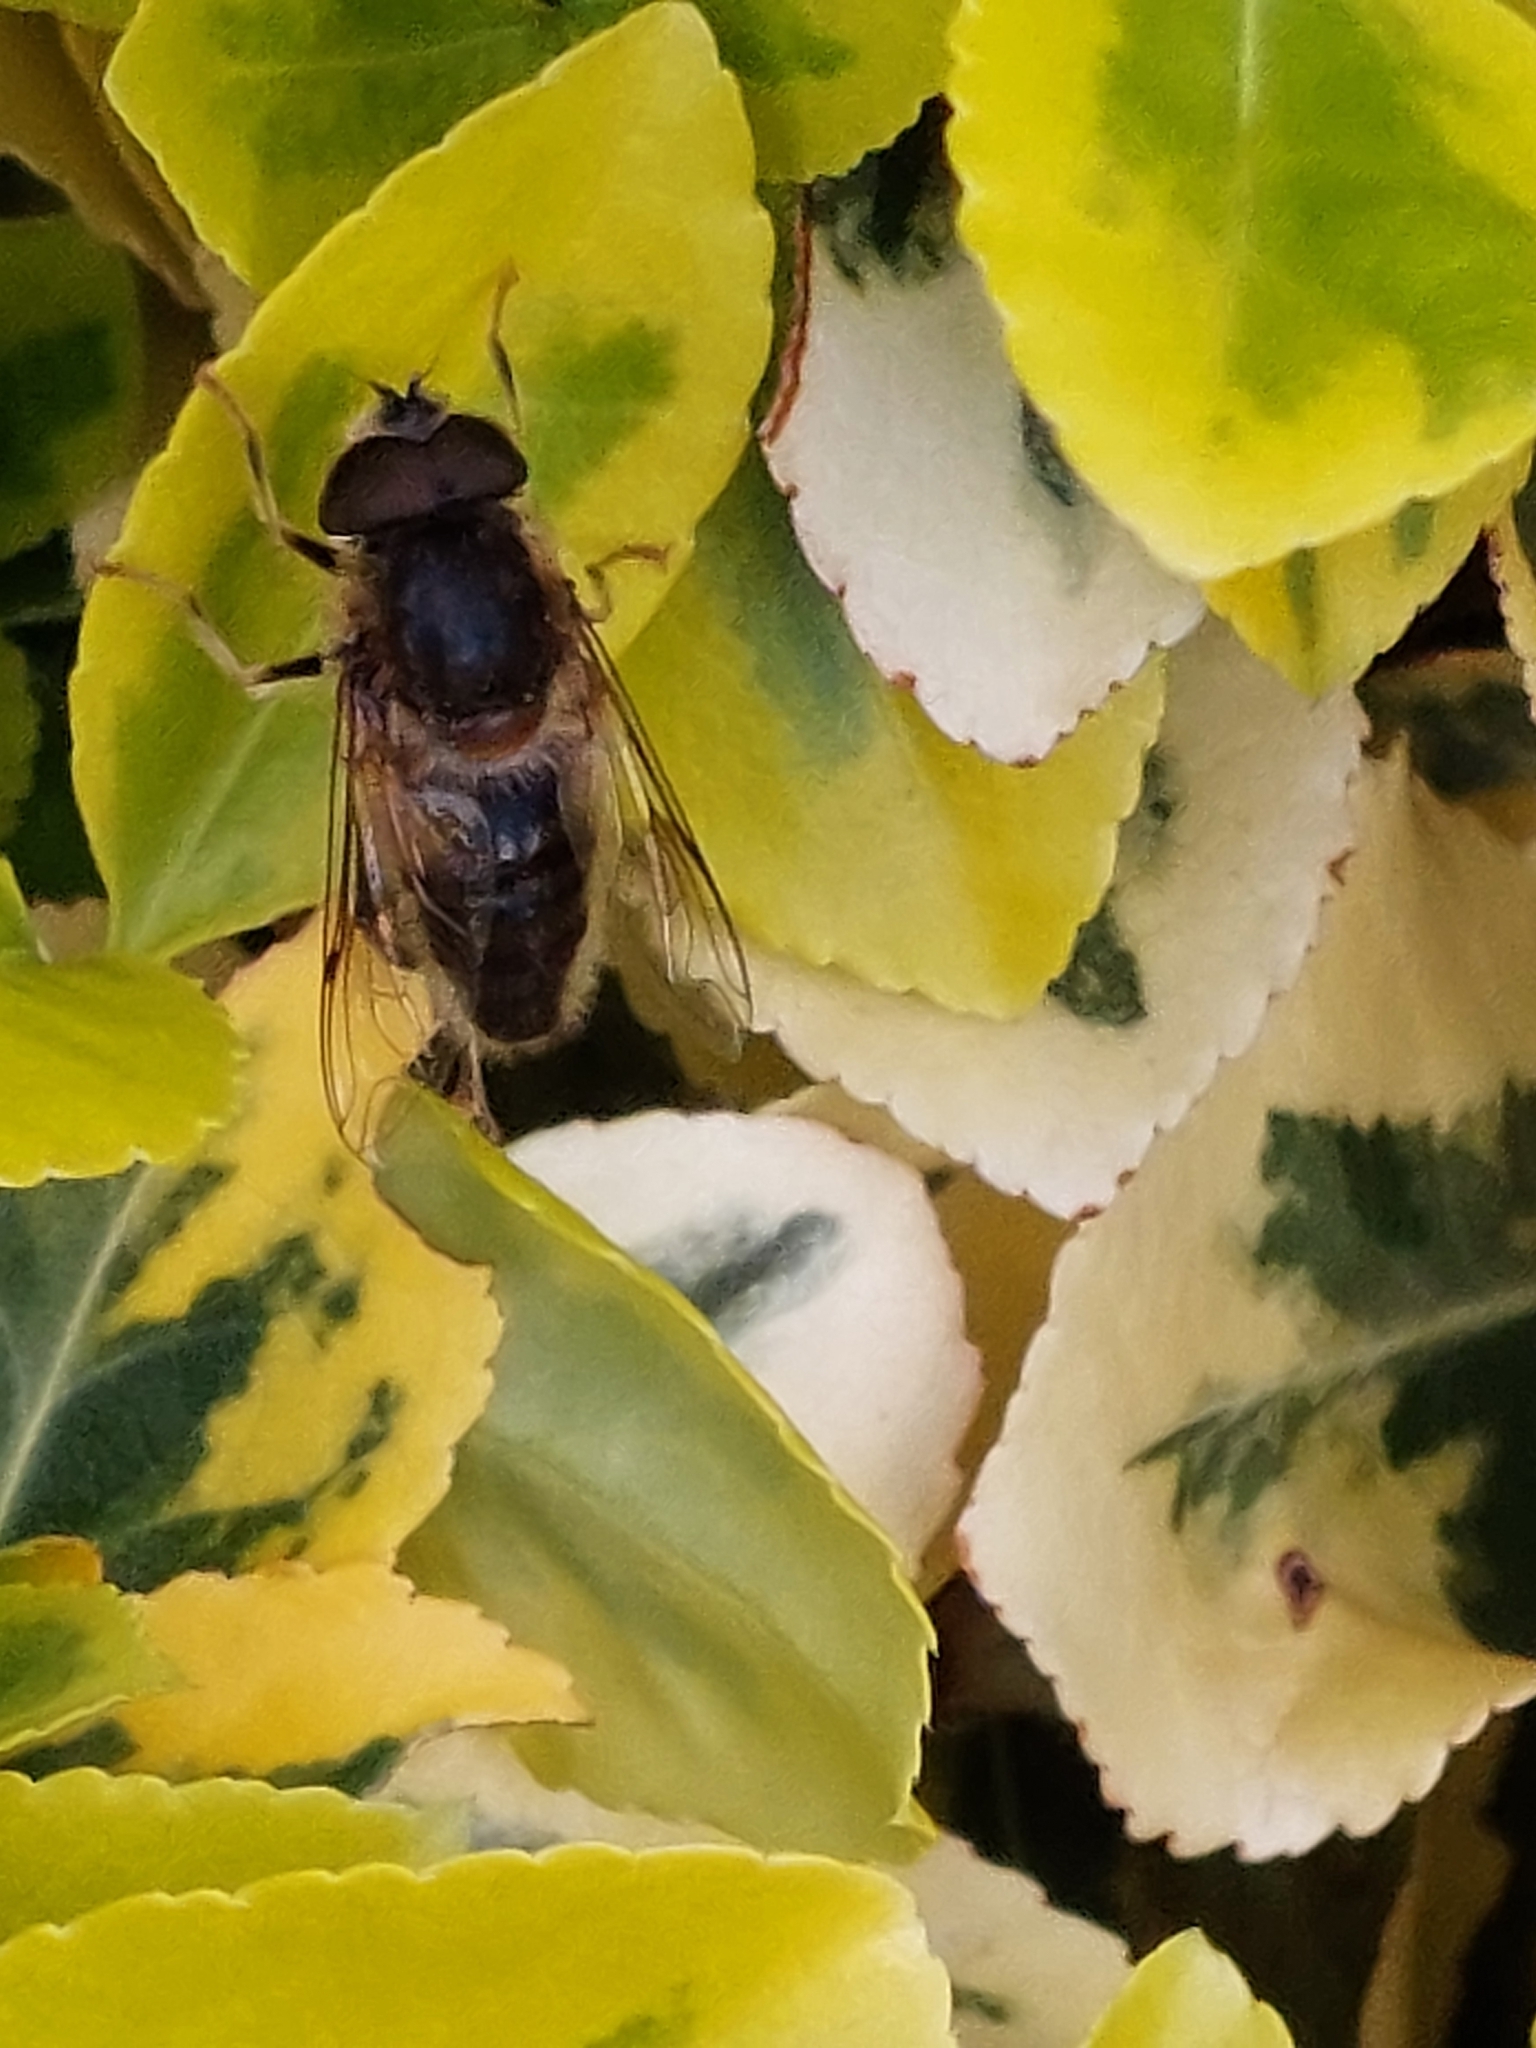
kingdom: Animalia
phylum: Arthropoda
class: Insecta
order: Diptera
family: Syrphidae
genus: Eristalis
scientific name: Eristalis pertinax
